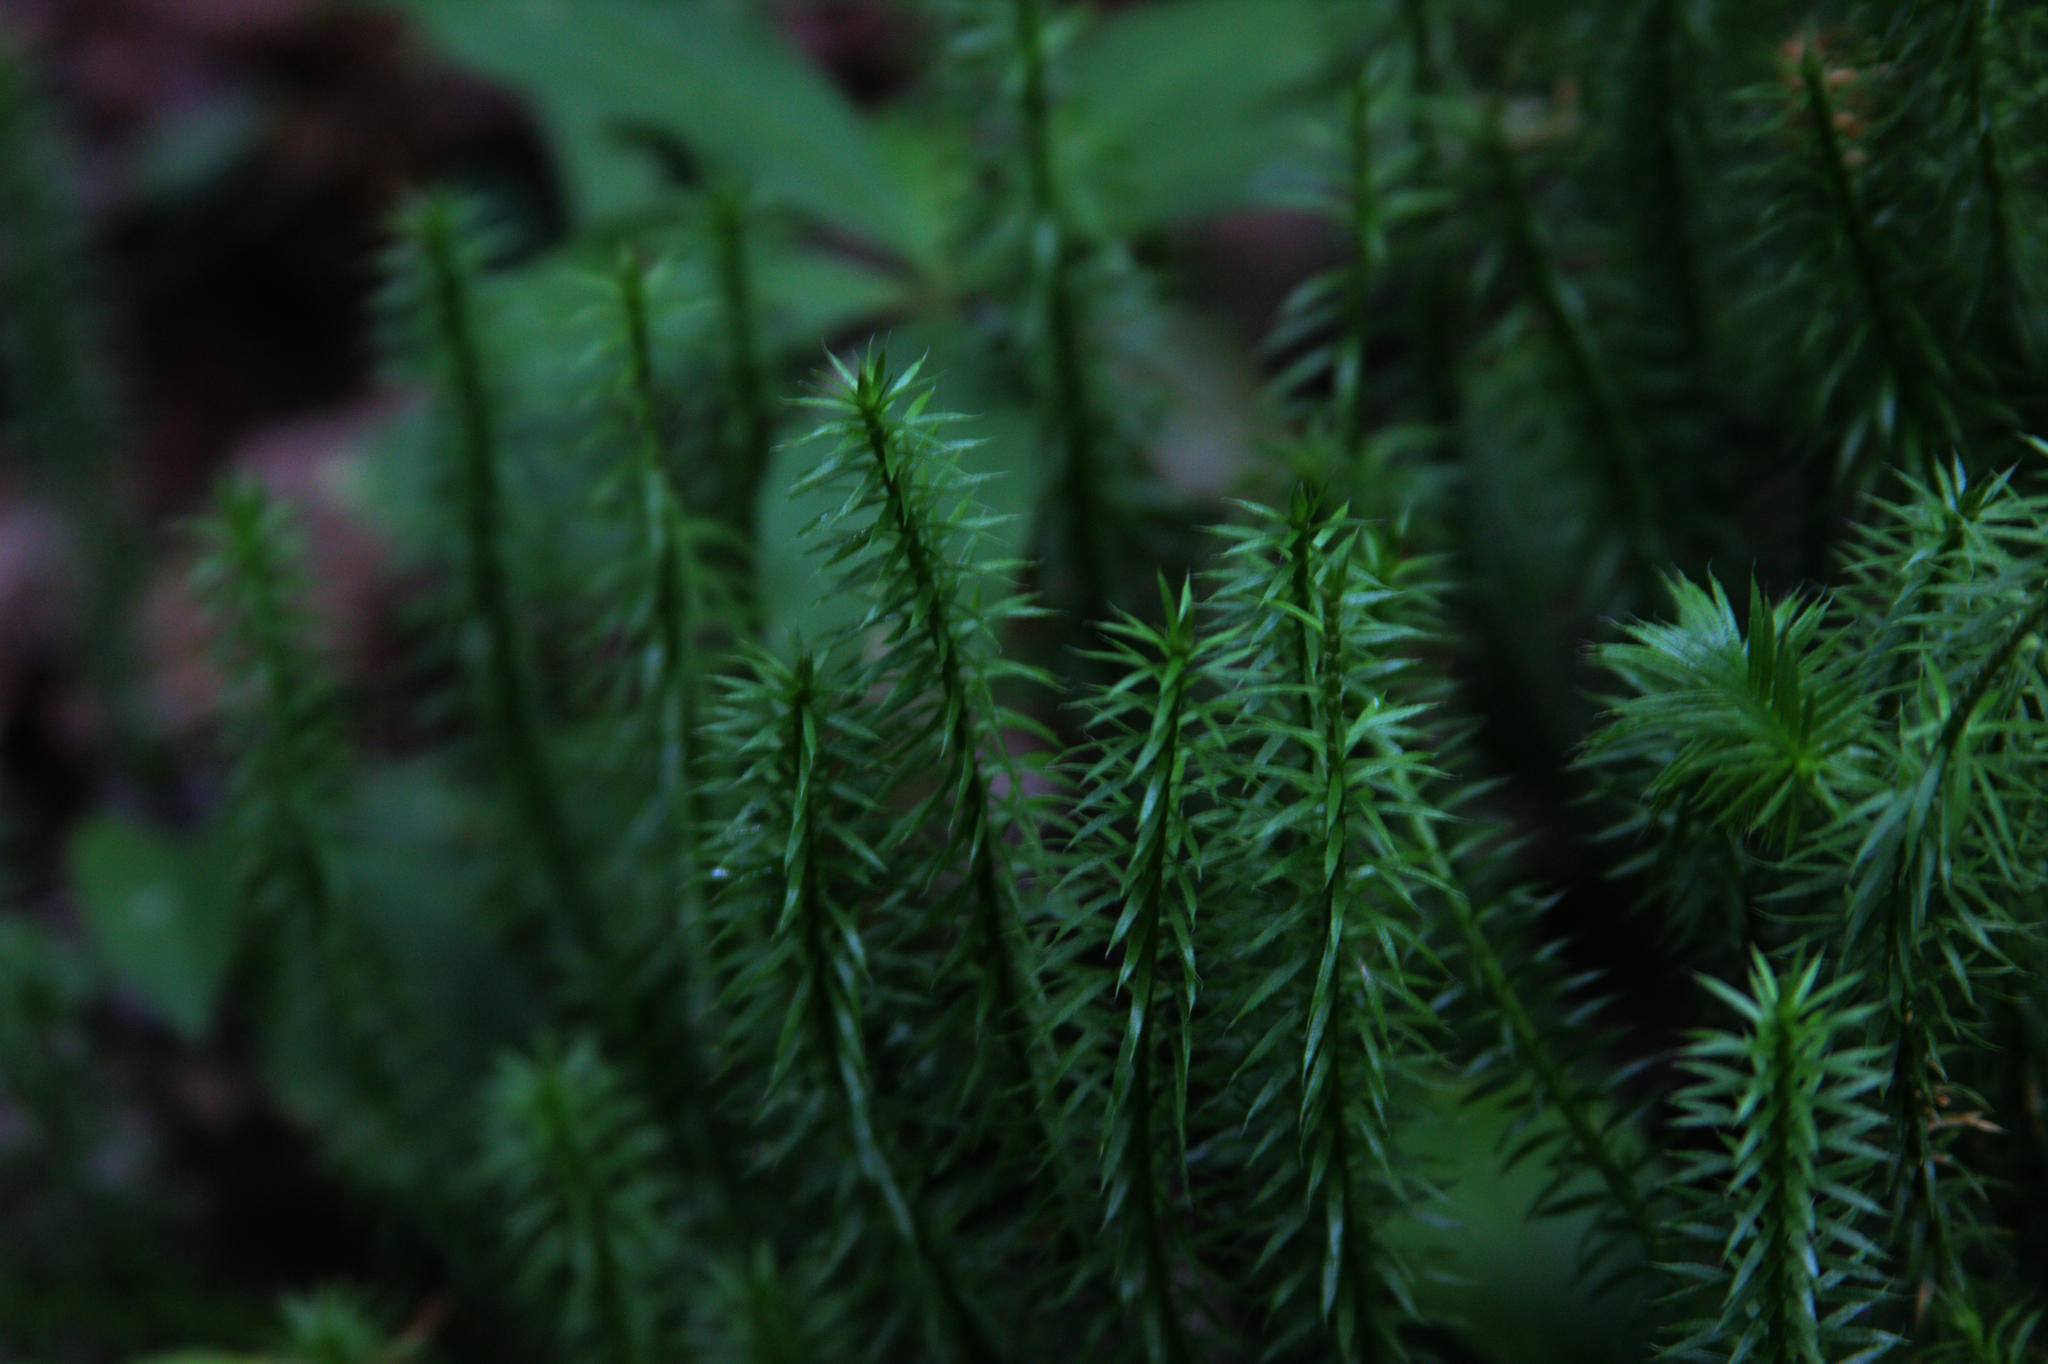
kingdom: Plantae
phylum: Tracheophyta
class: Lycopodiopsida
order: Lycopodiales
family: Lycopodiaceae
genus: Spinulum
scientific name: Spinulum annotinum
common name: Interrupted club-moss
